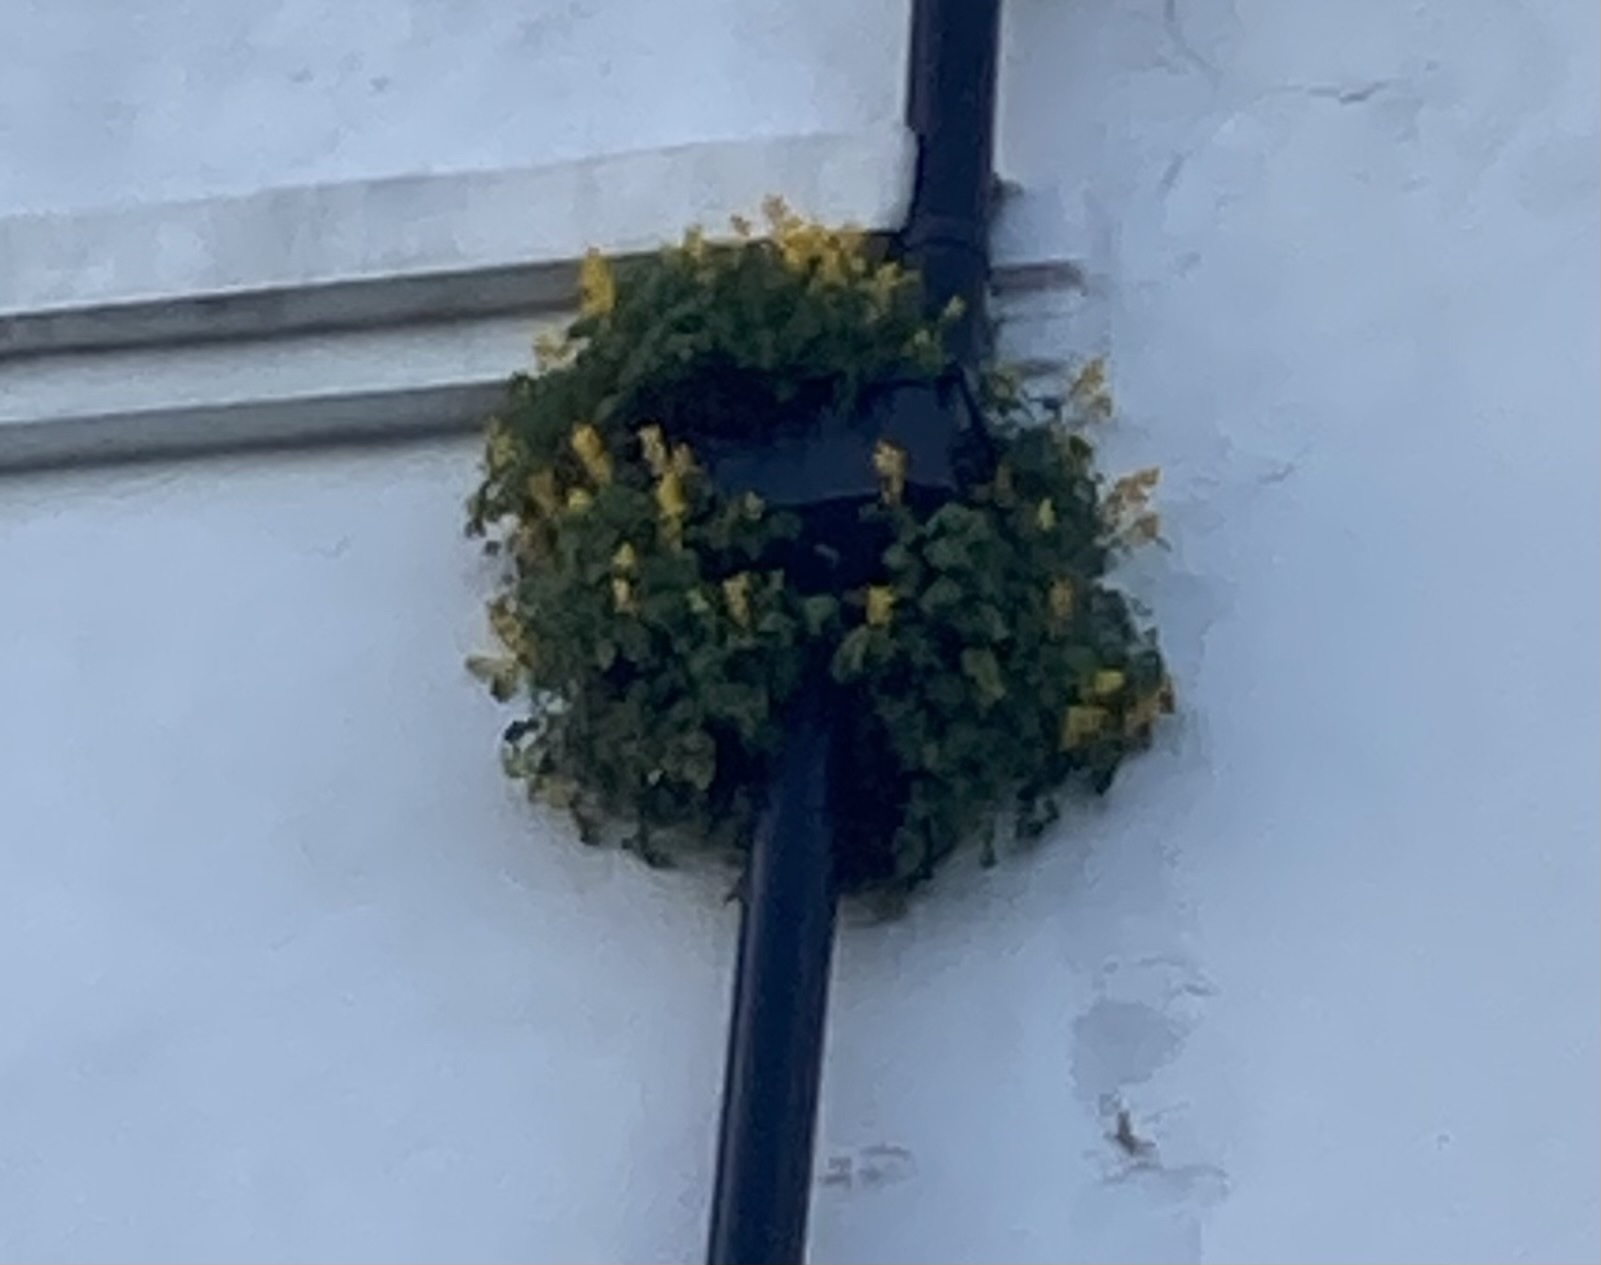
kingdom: Plantae
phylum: Tracheophyta
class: Magnoliopsida
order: Ranunculales
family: Papaveraceae
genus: Pseudofumaria
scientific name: Pseudofumaria lutea
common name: Yellow corydalis
